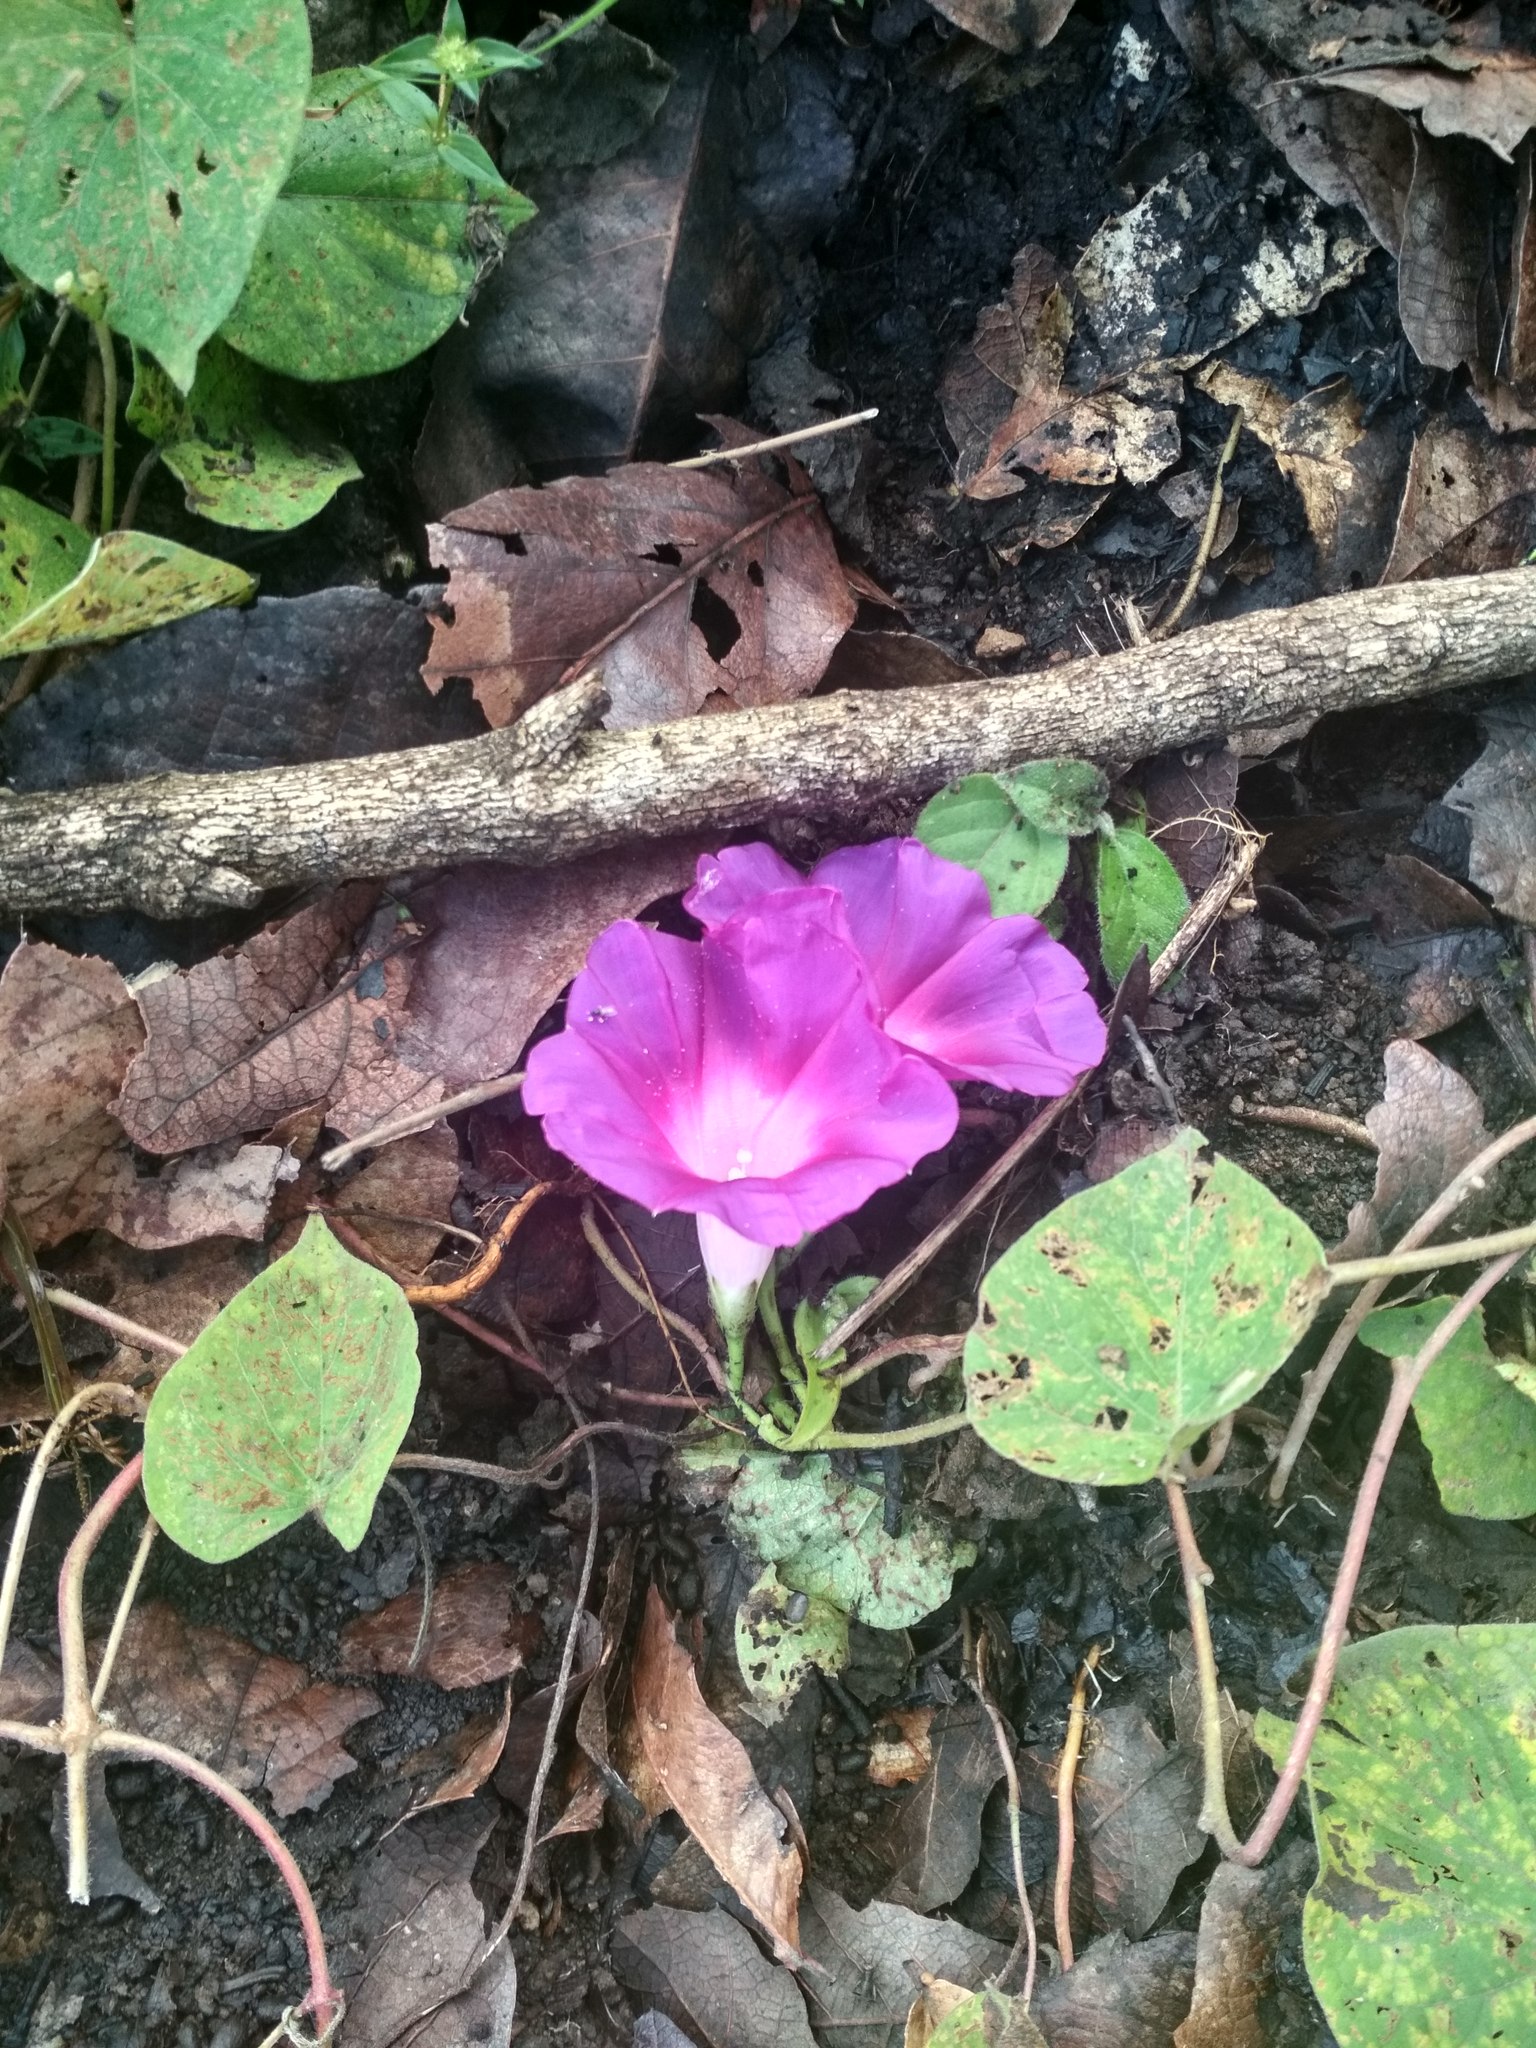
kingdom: Plantae
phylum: Tracheophyta
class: Magnoliopsida
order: Solanales
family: Convolvulaceae
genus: Ipomoea
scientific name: Ipomoea orizabensis
